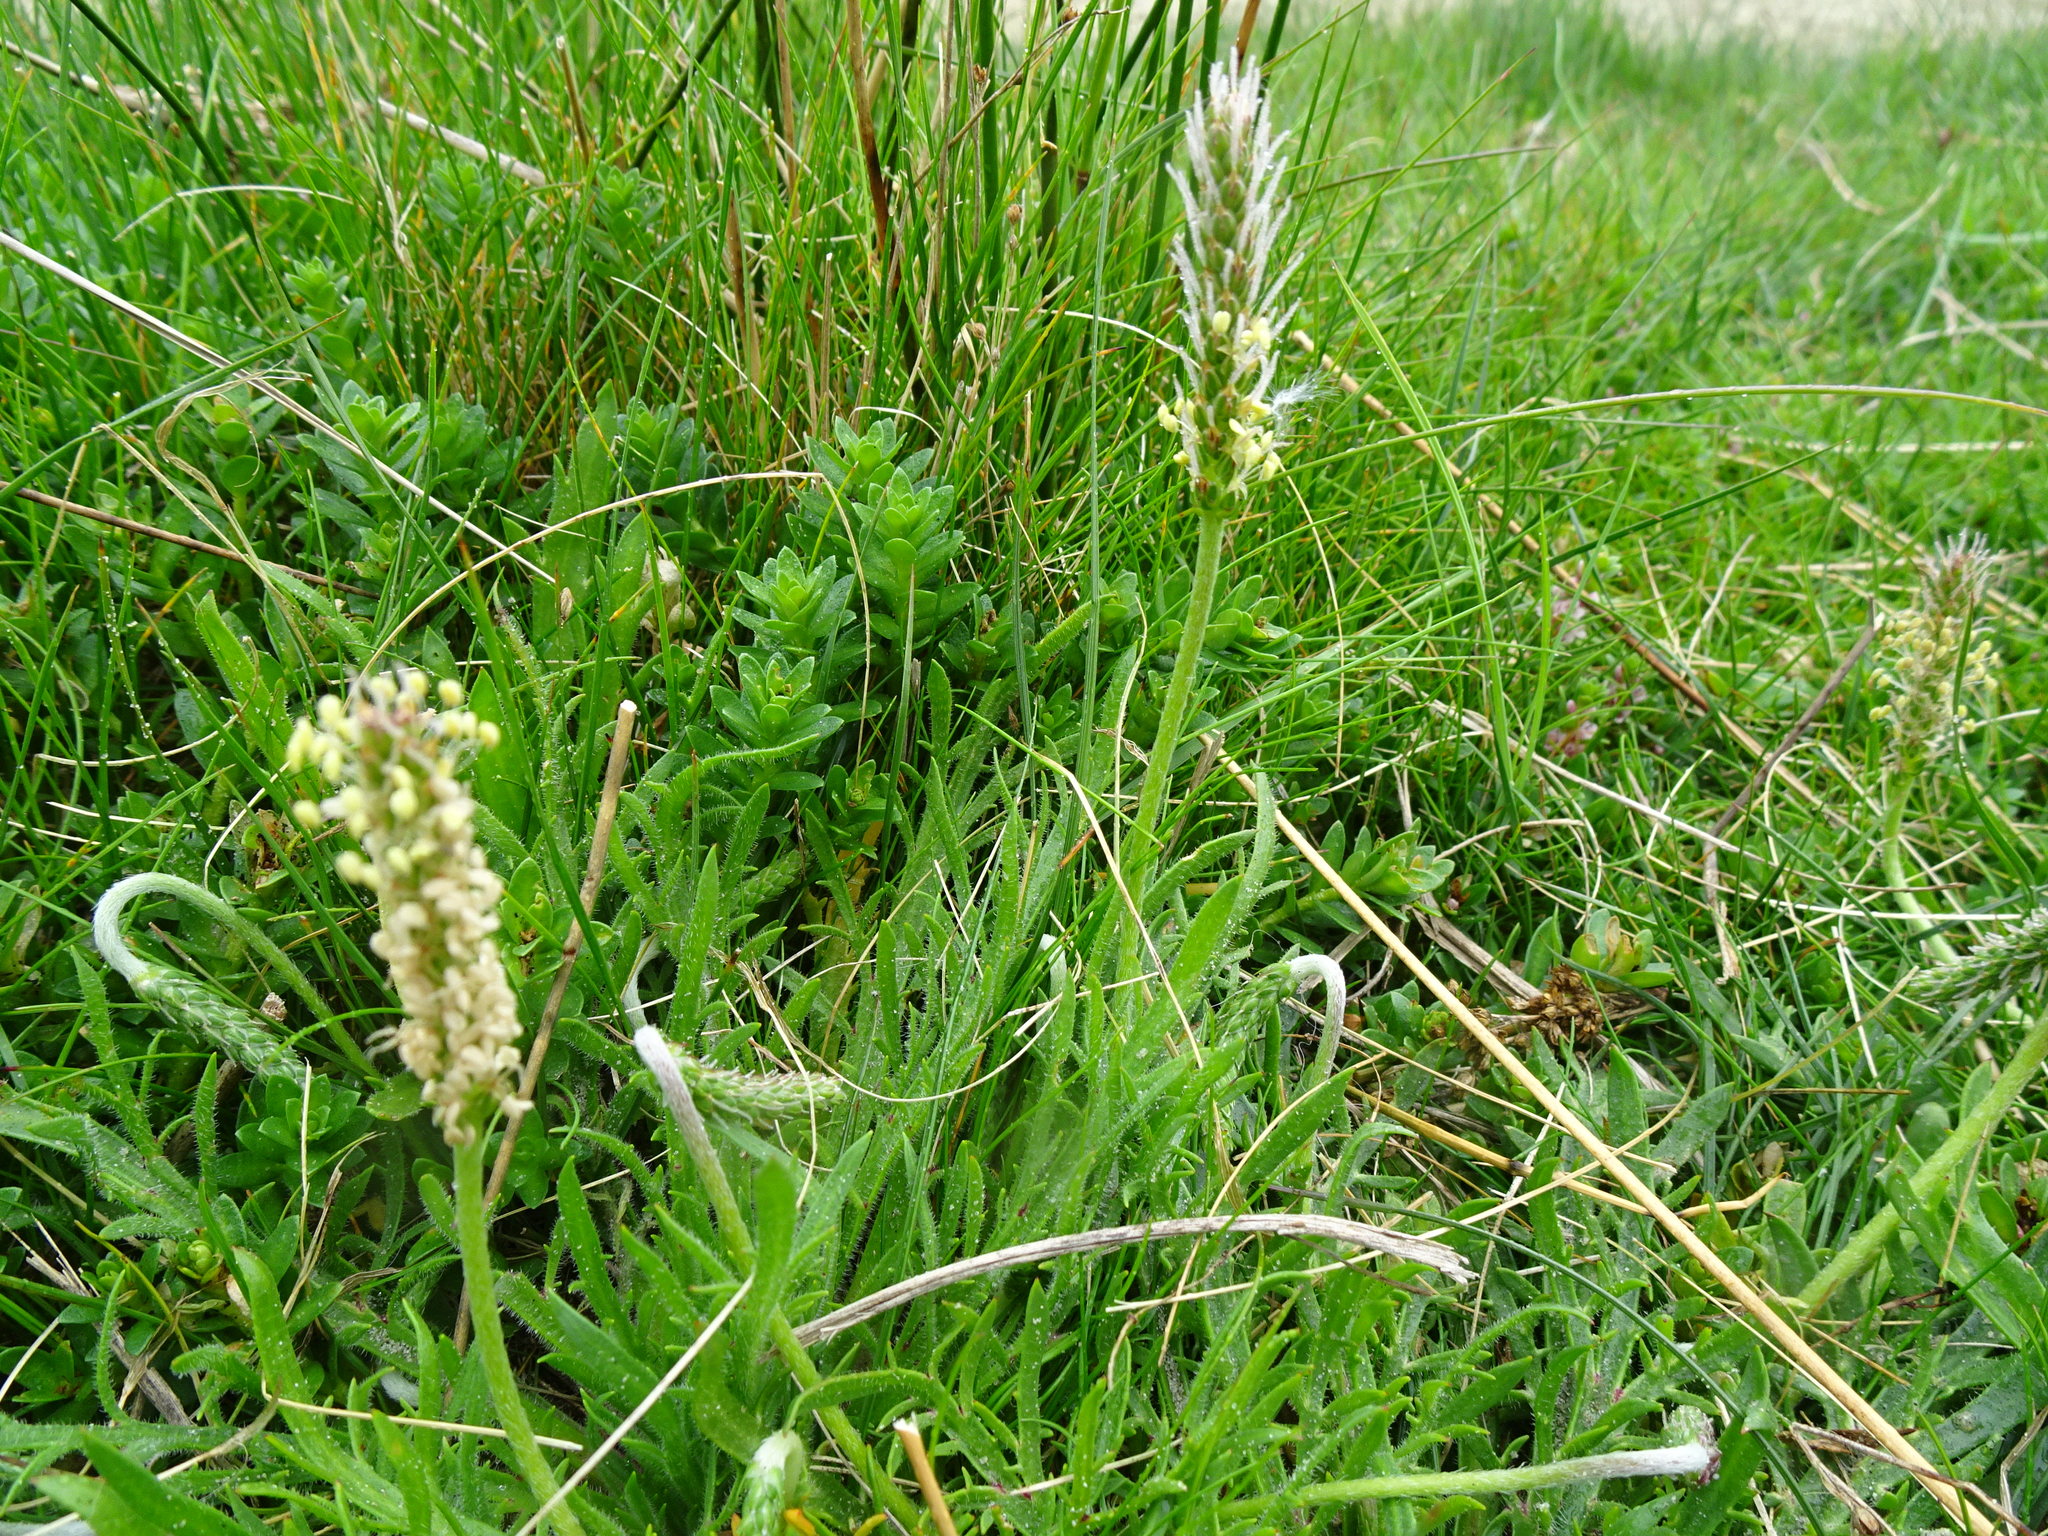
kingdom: Plantae
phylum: Tracheophyta
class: Magnoliopsida
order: Lamiales
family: Plantaginaceae
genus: Plantago
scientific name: Plantago coronopus
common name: Buck's-horn plantain
